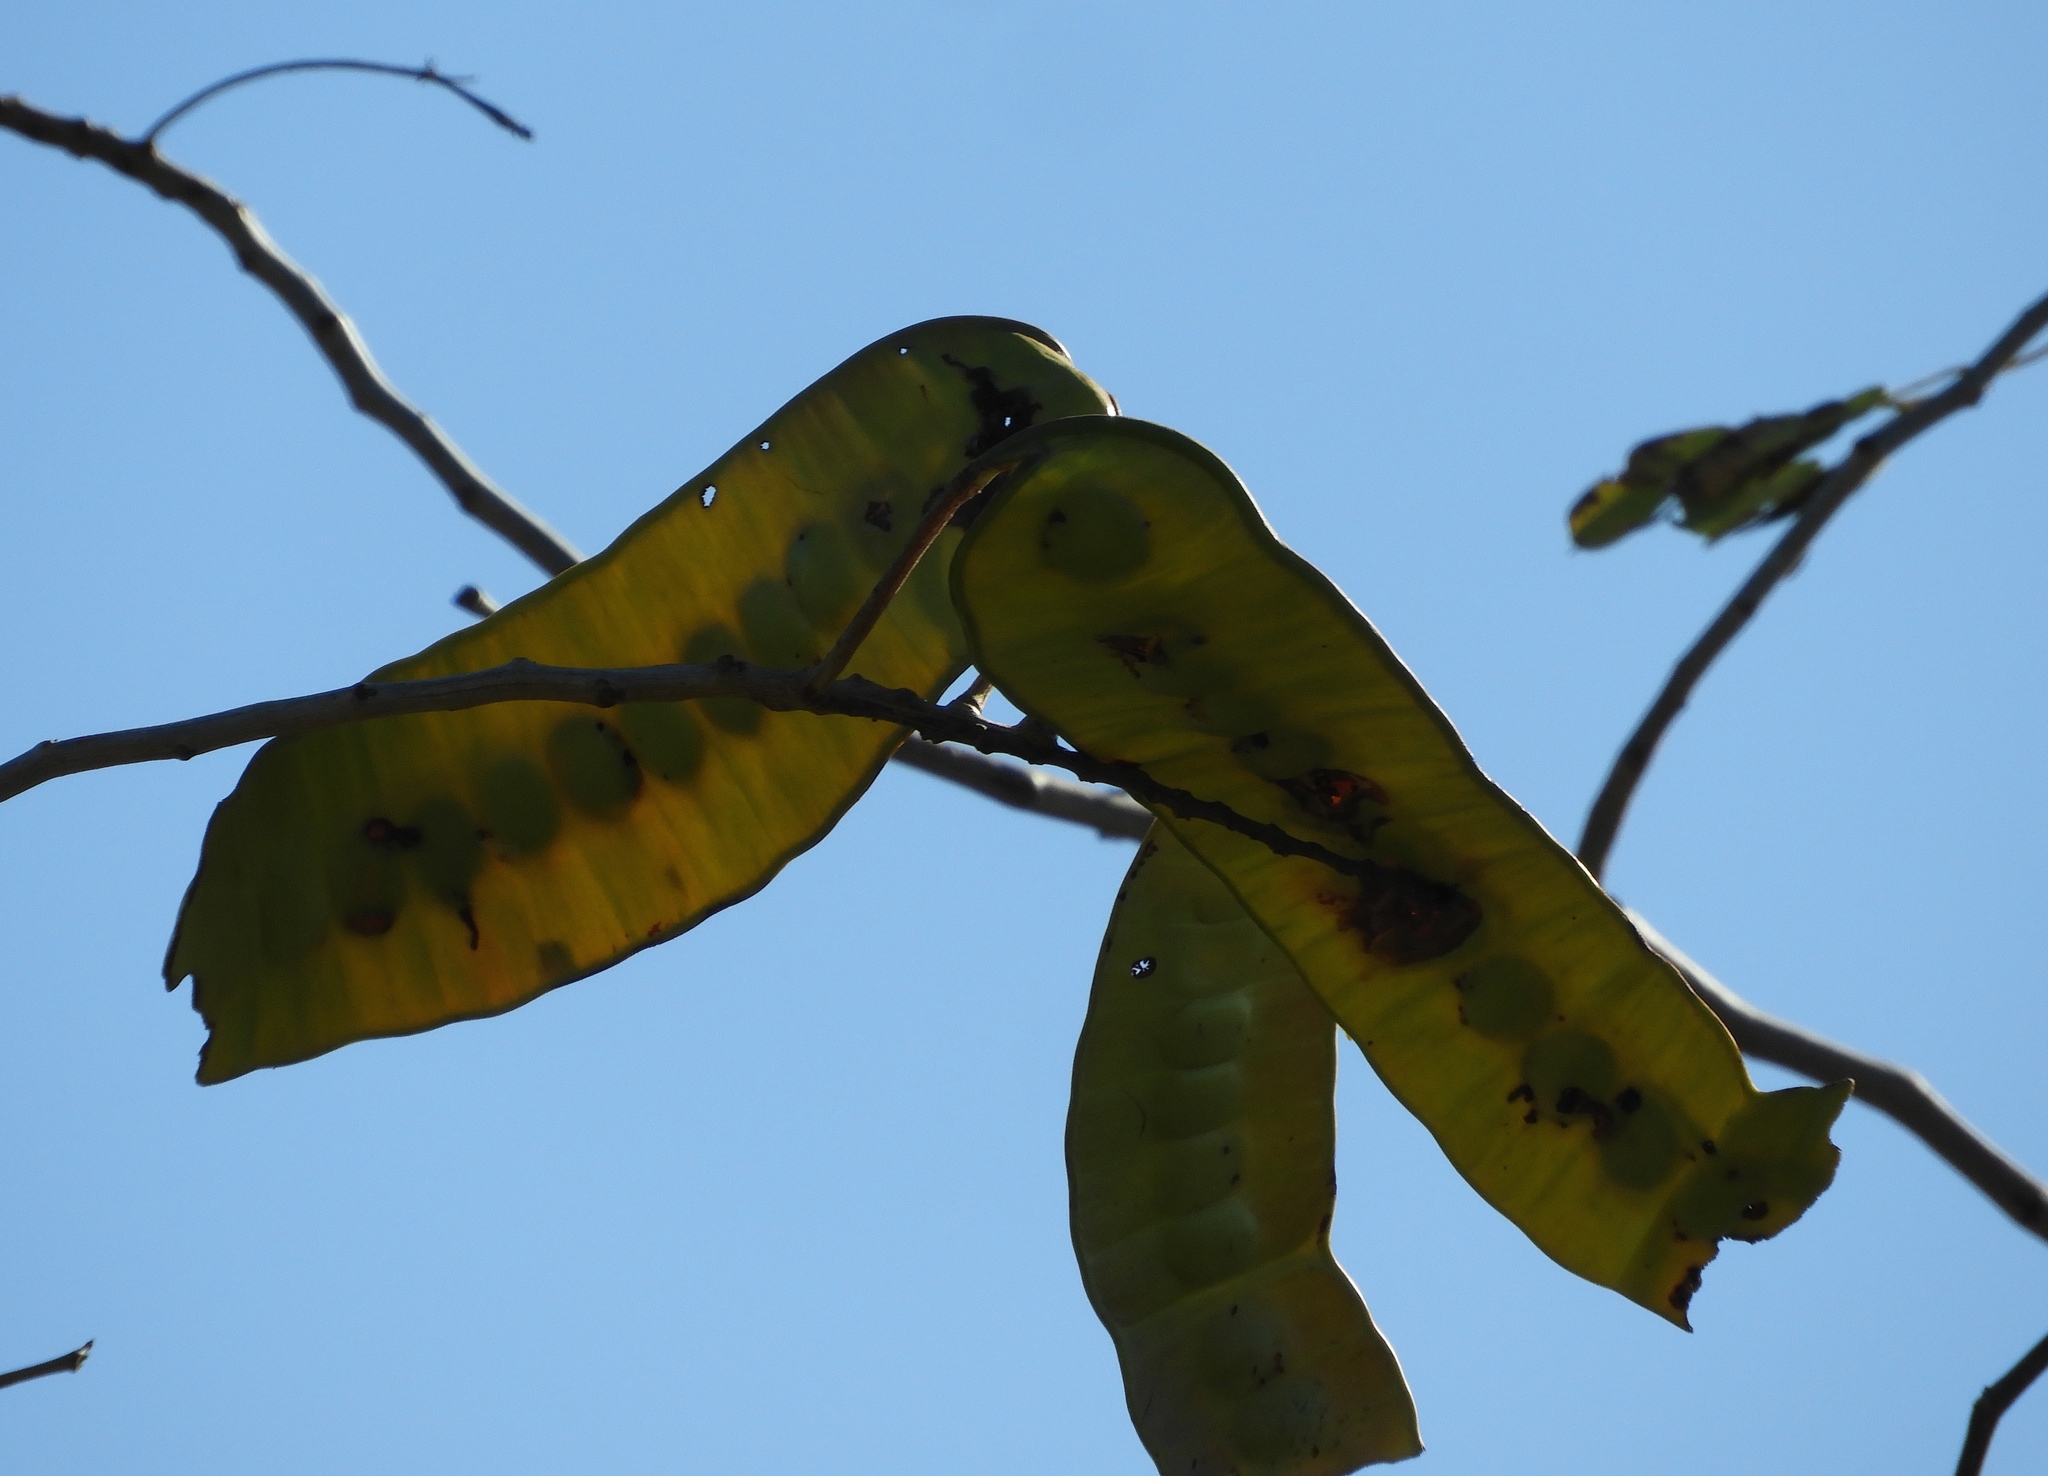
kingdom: Plantae
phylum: Tracheophyta
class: Magnoliopsida
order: Fabales
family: Fabaceae
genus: Entada
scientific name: Entada polystachya
